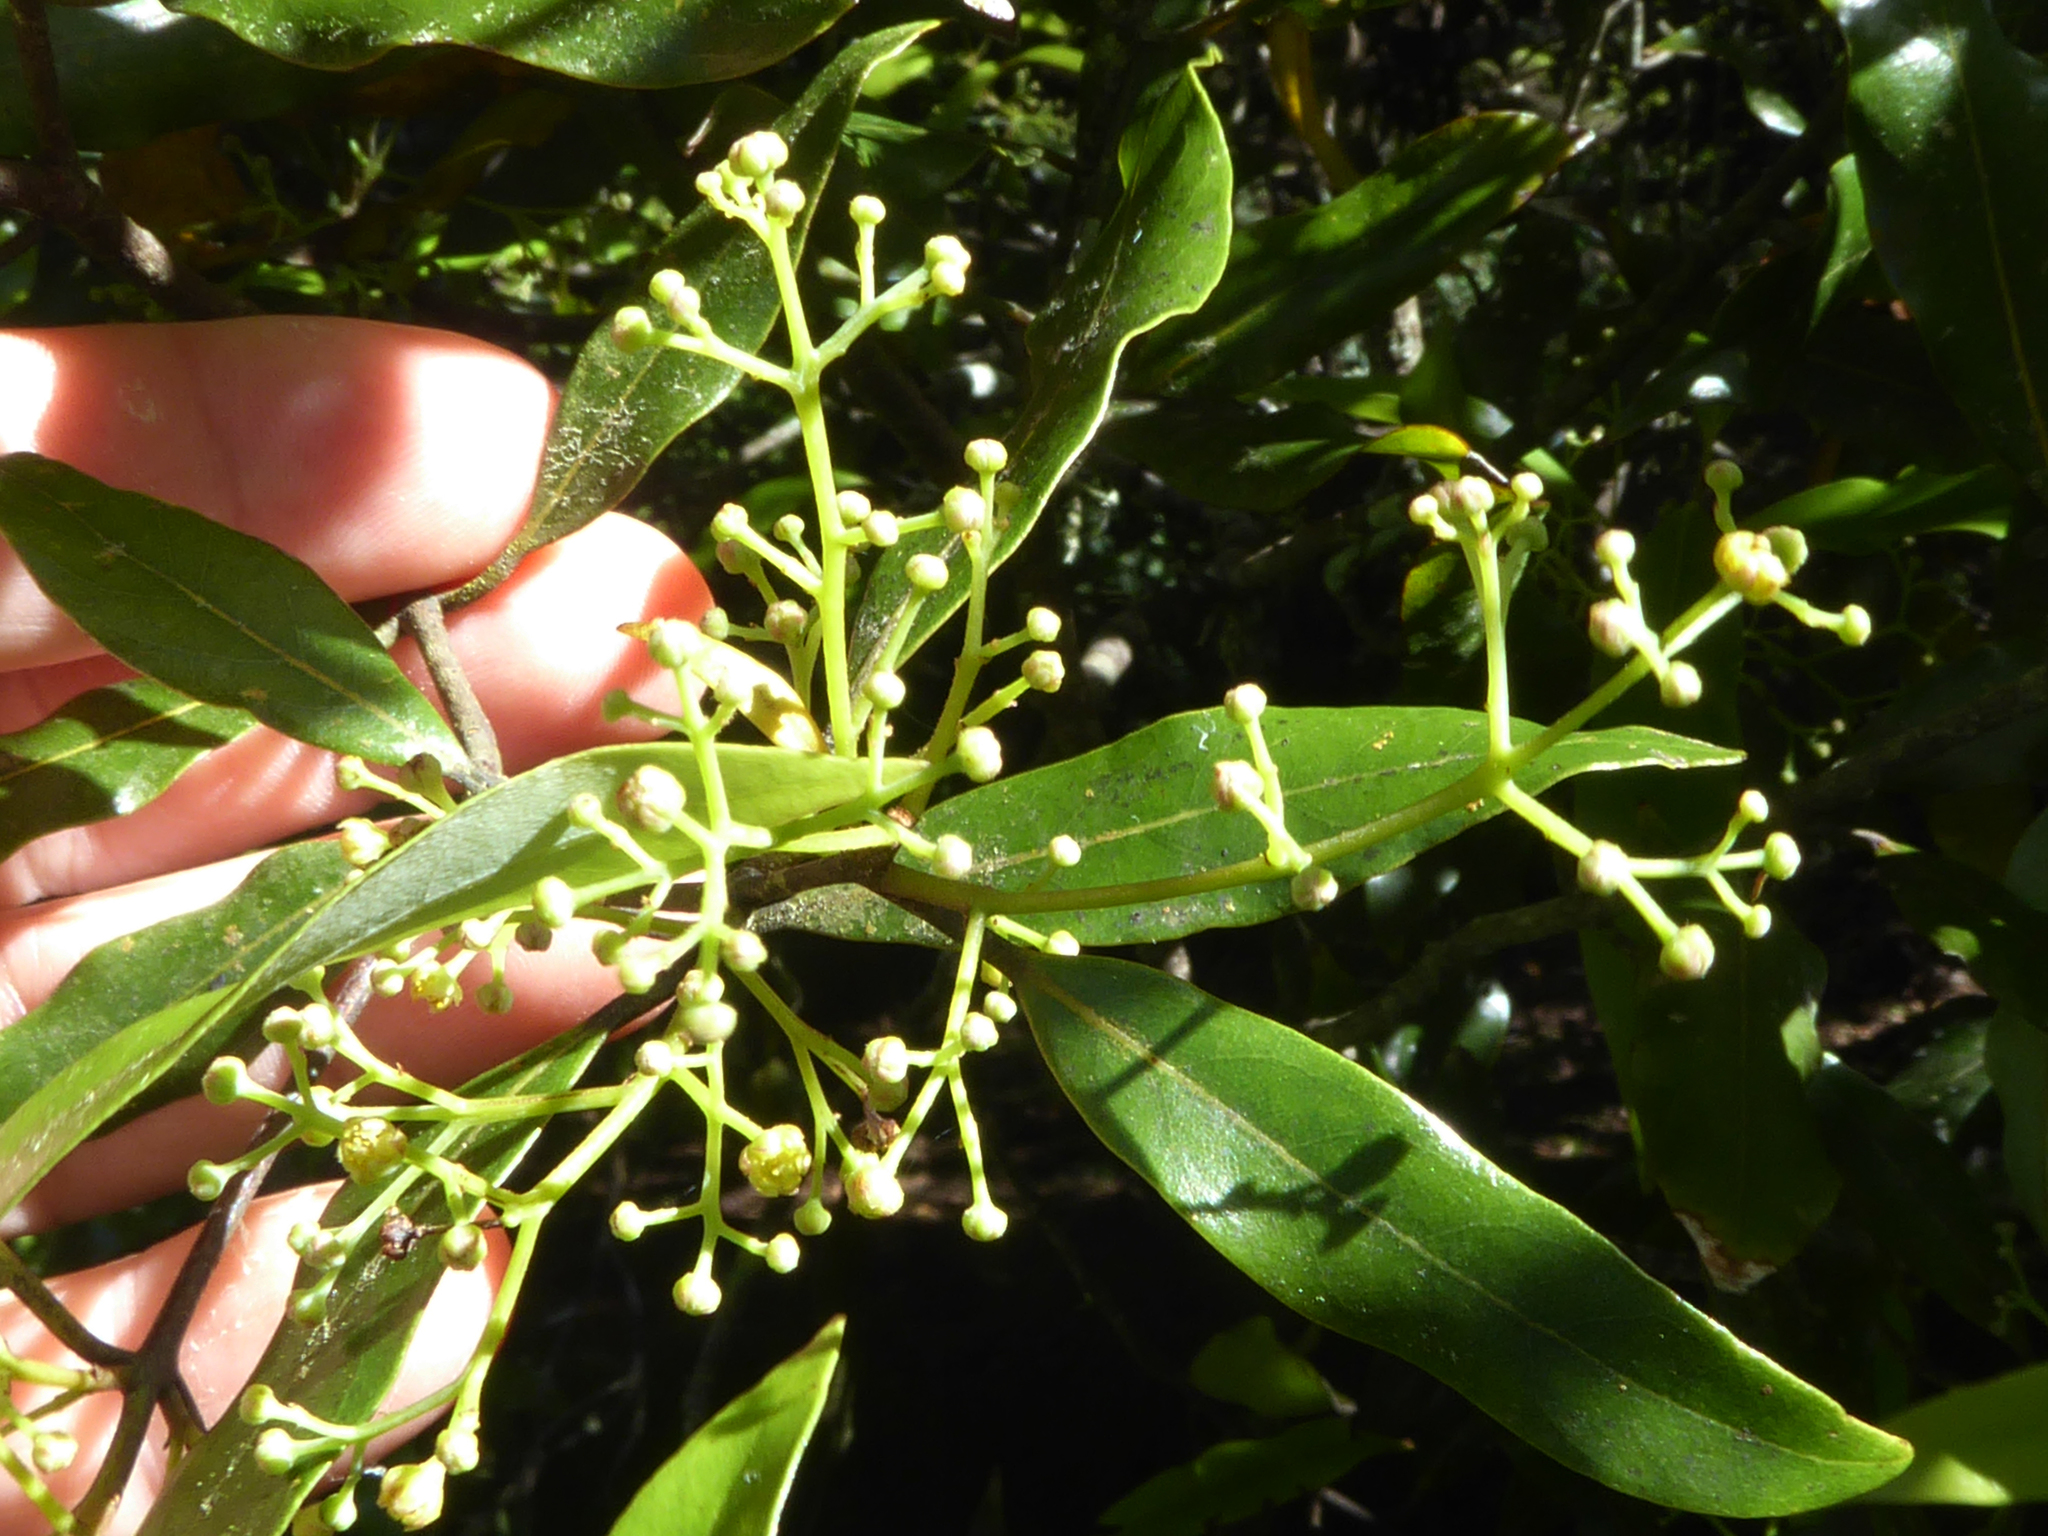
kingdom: Plantae
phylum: Tracheophyta
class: Magnoliopsida
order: Laurales
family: Lauraceae
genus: Beilschmiedia
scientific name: Beilschmiedia tawa
